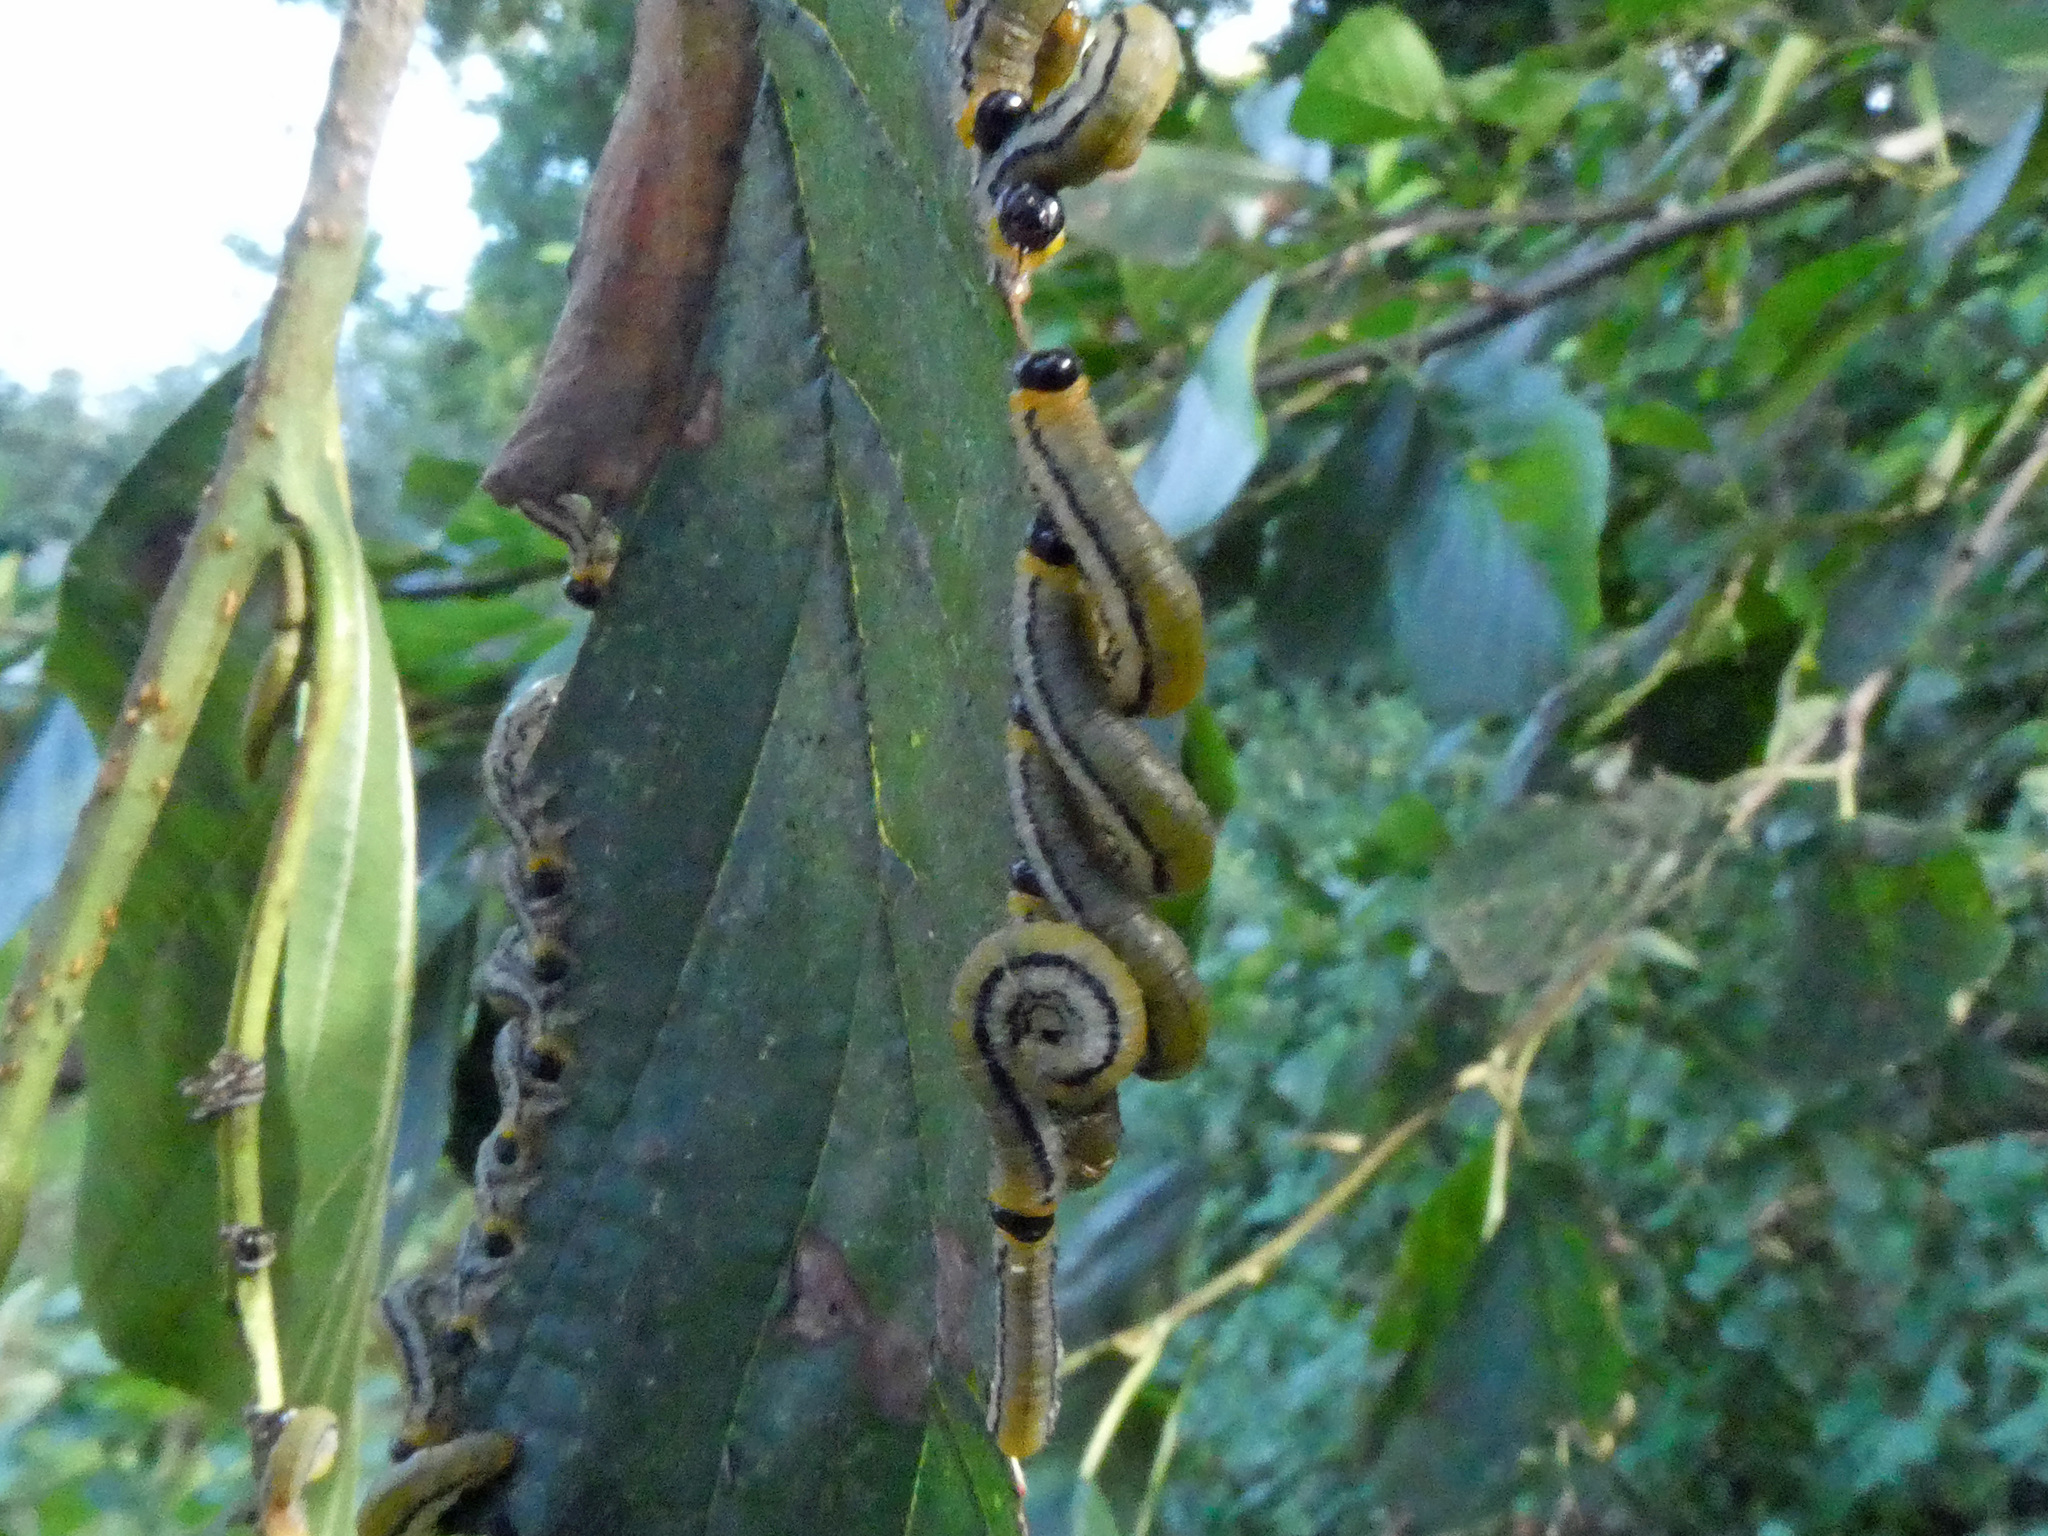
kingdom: Animalia
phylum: Arthropoda
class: Insecta
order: Hymenoptera
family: Tenthredinidae
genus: Hemichroa
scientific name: Hemichroa crocea
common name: Striped alder sawfly
